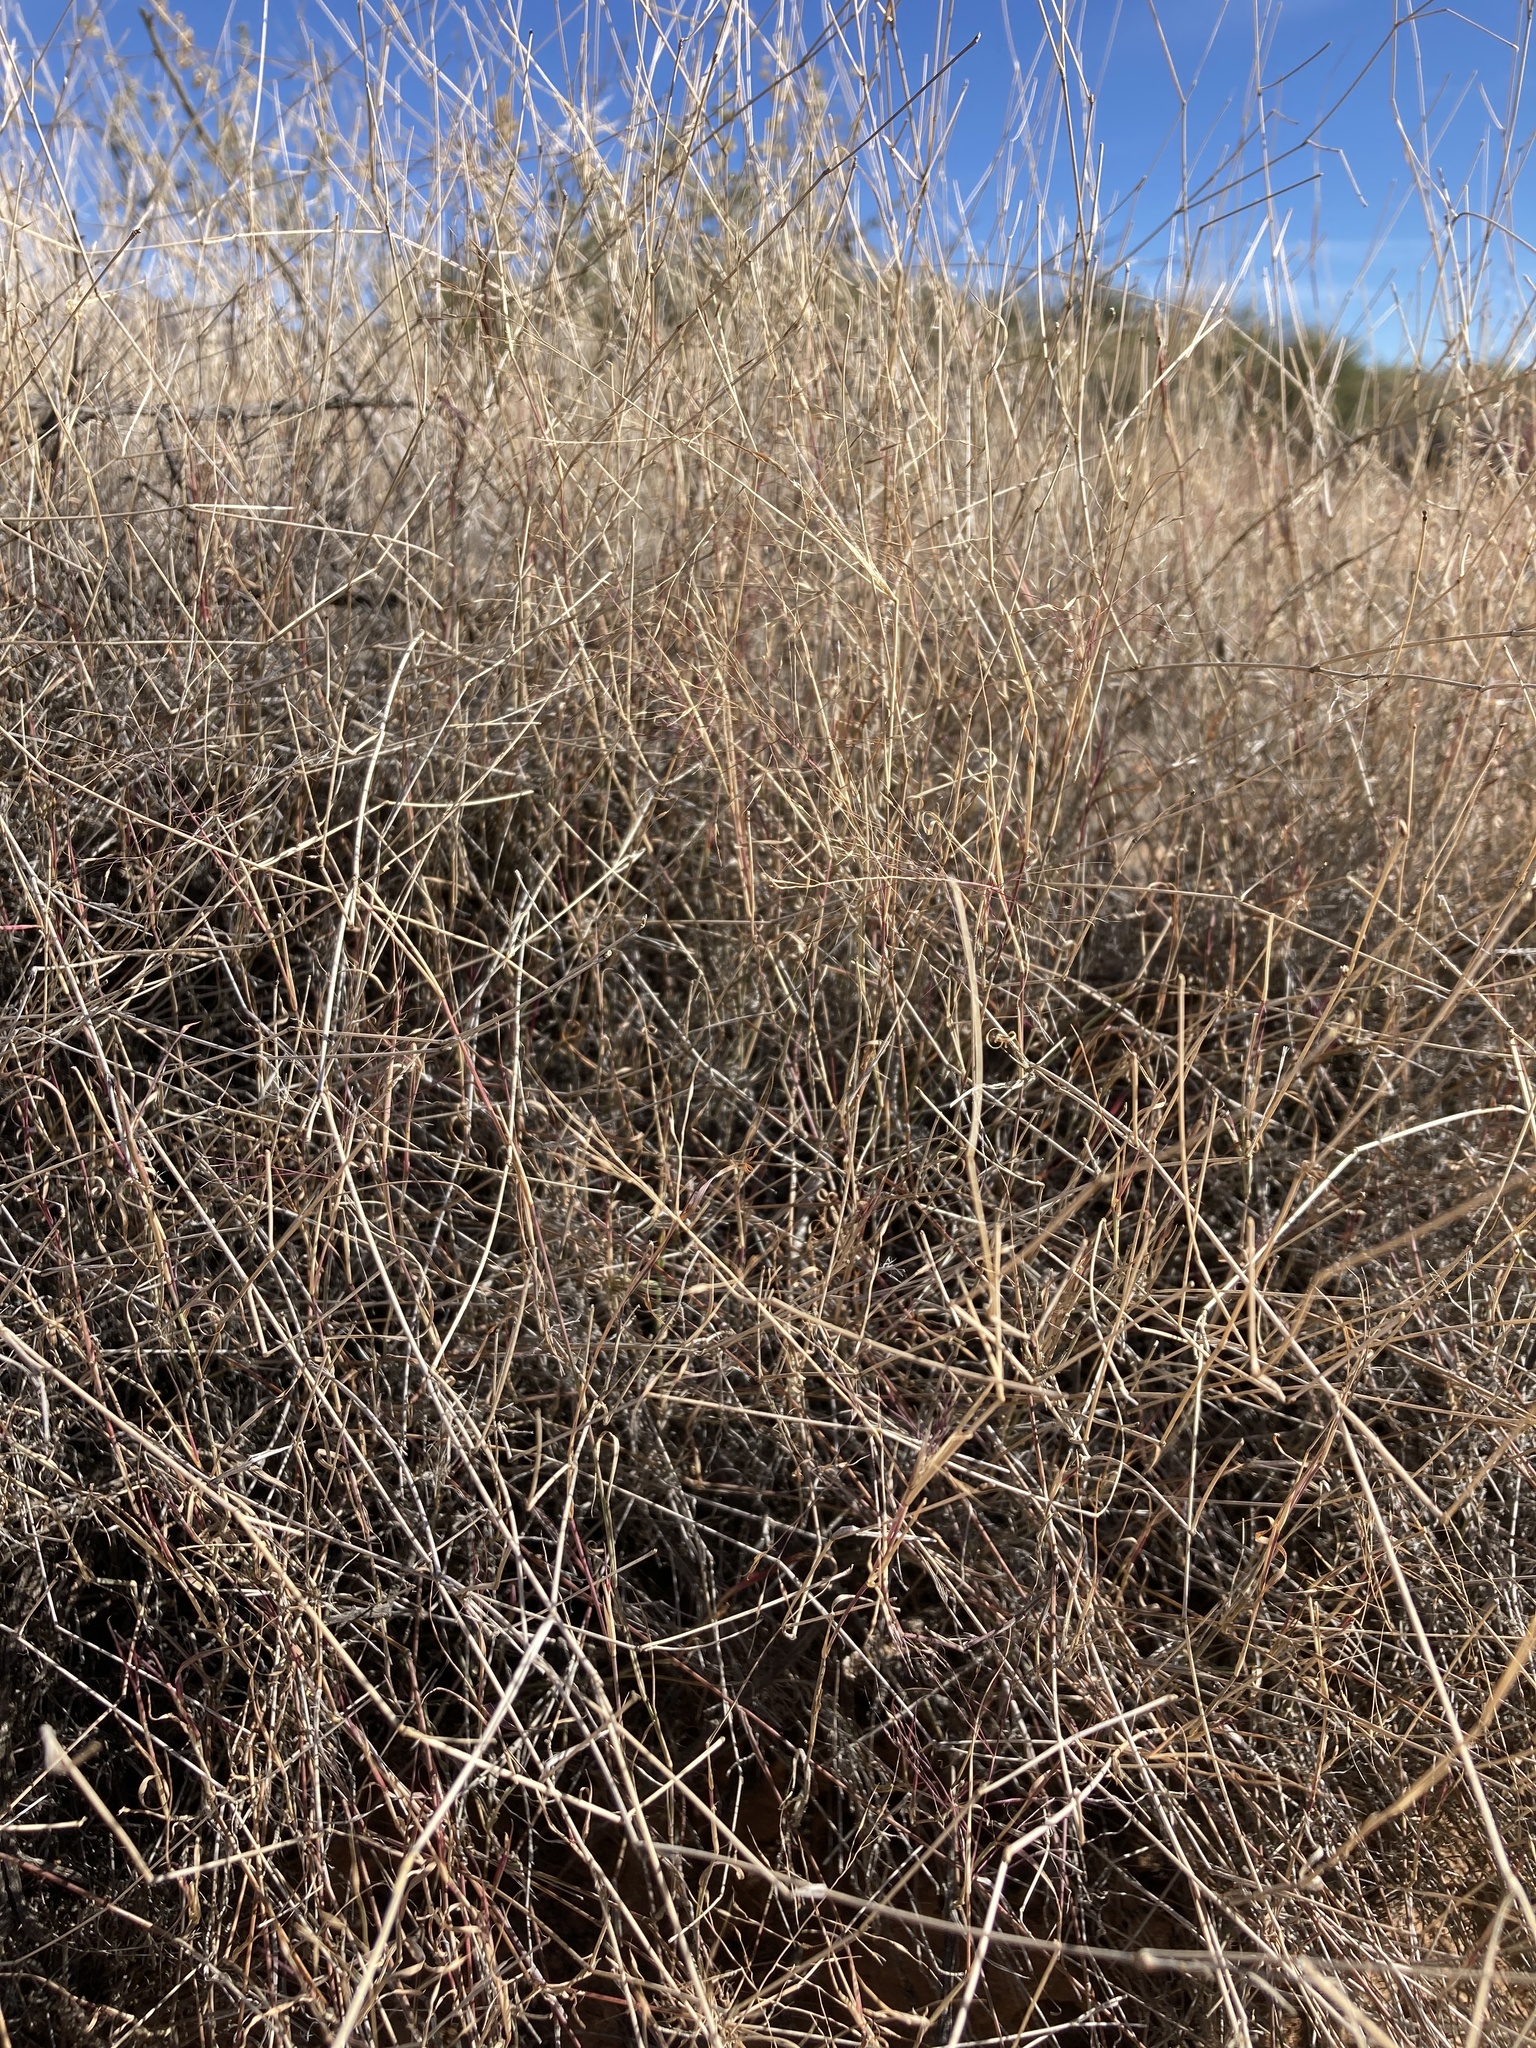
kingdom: Plantae
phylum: Tracheophyta
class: Liliopsida
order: Poales
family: Poaceae
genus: Muhlenbergia
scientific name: Muhlenbergia porteri
